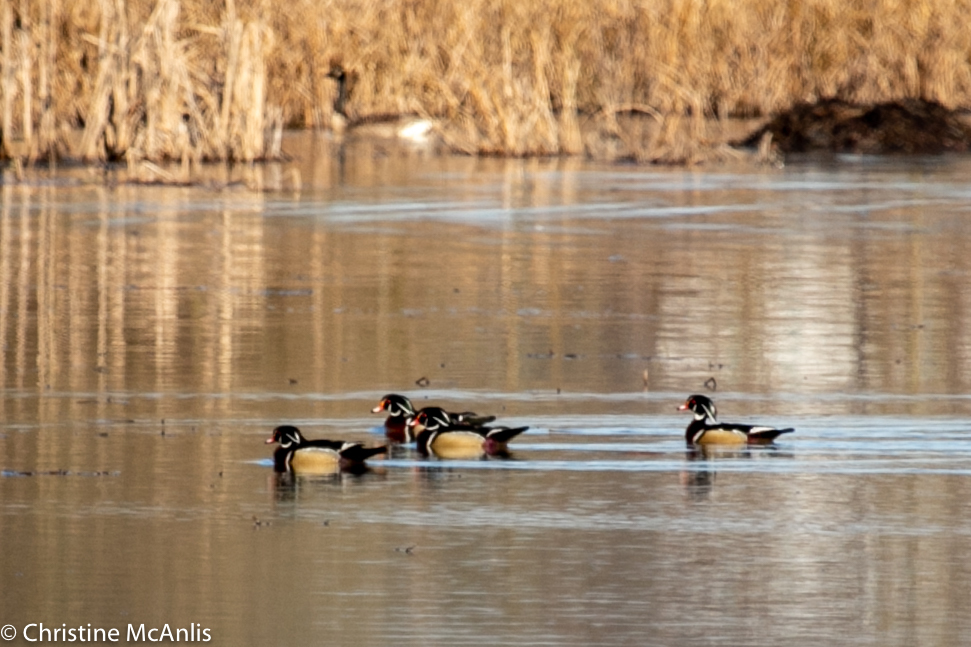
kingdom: Animalia
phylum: Chordata
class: Aves
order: Anseriformes
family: Anatidae
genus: Aix
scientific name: Aix sponsa
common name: Wood duck
